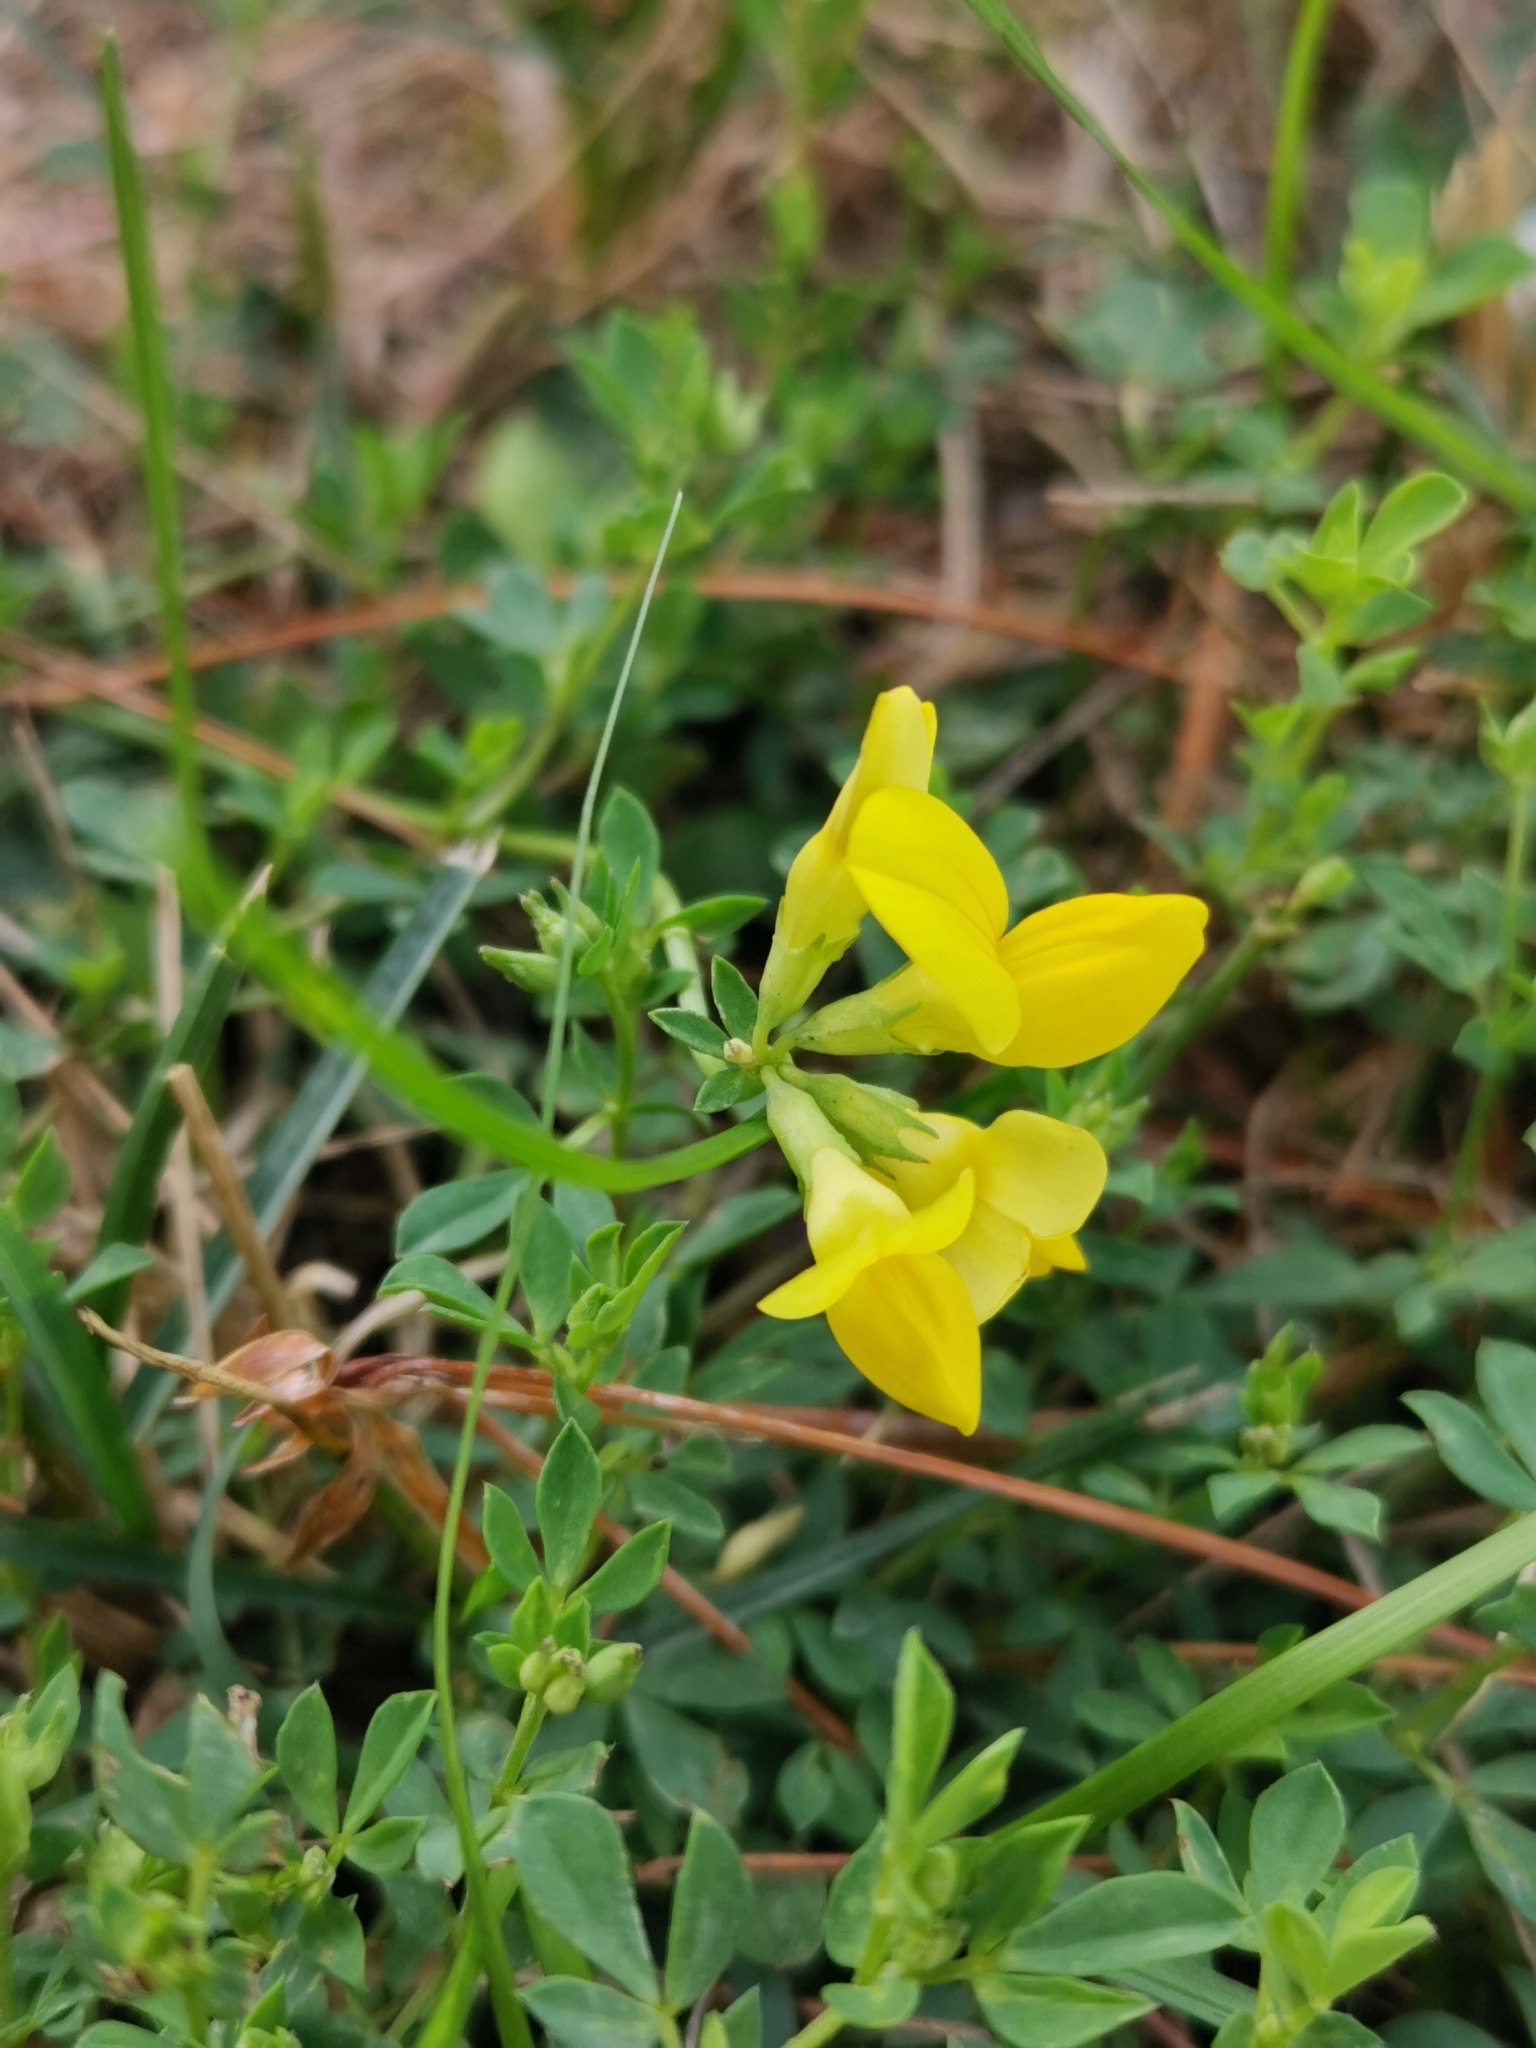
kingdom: Plantae
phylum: Tracheophyta
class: Magnoliopsida
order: Fabales
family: Fabaceae
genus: Lotus
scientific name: Lotus corniculatus
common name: Common bird's-foot-trefoil
